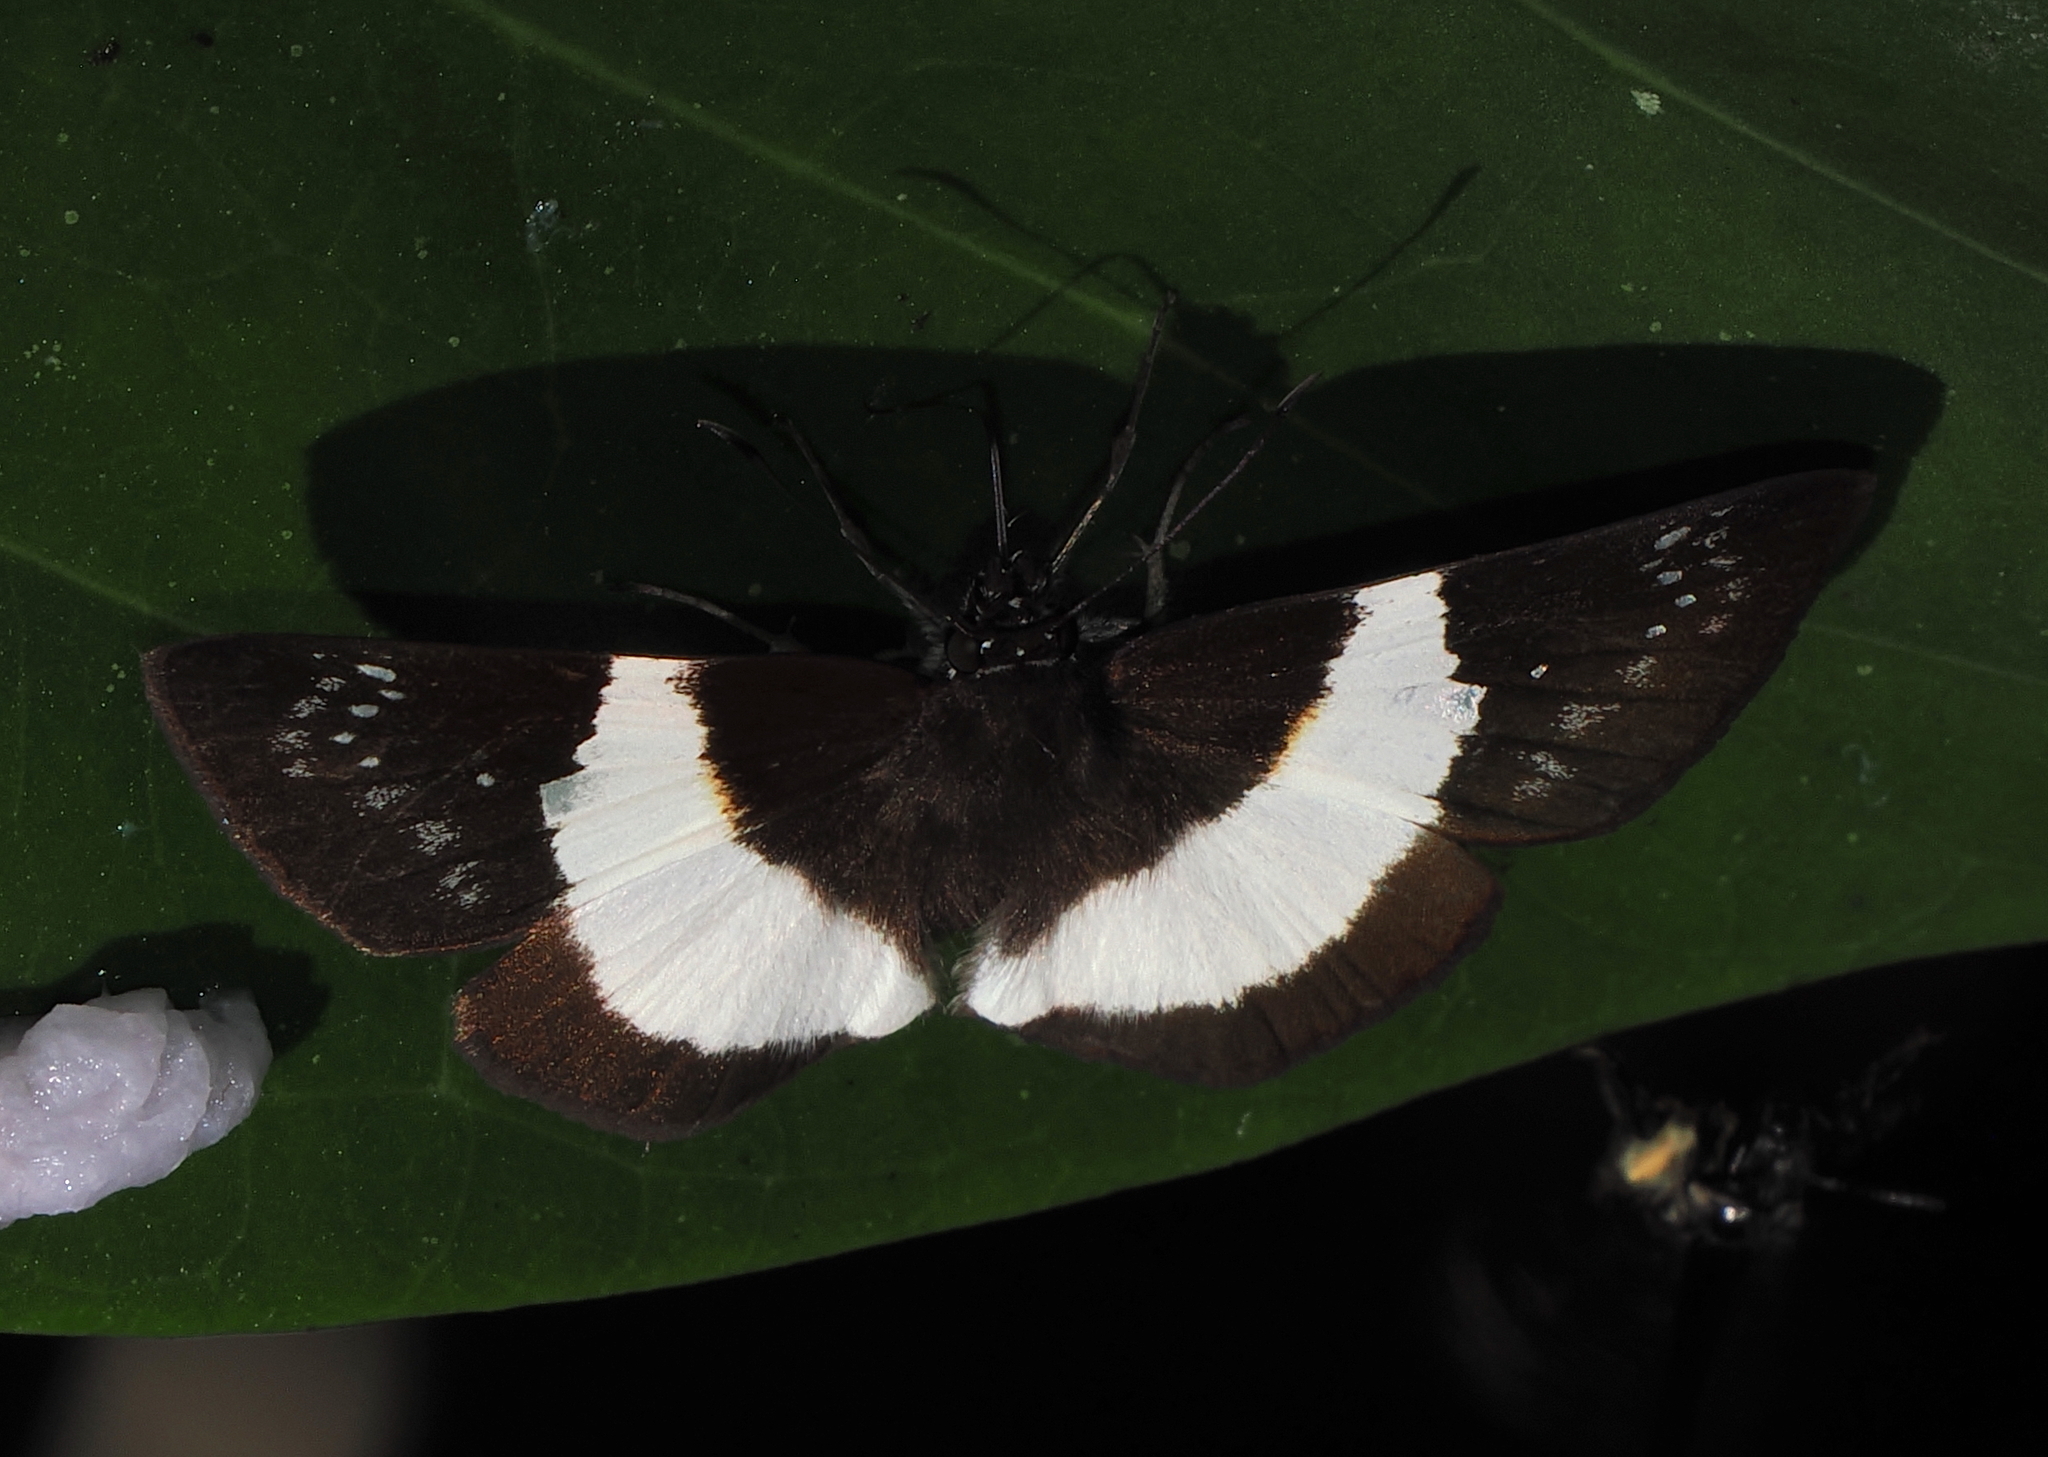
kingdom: Animalia
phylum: Arthropoda
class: Insecta
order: Lepidoptera
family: Hesperiidae
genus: Eburuncus
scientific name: Eburuncus unifasciata
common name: Single-banded tuskyhook
